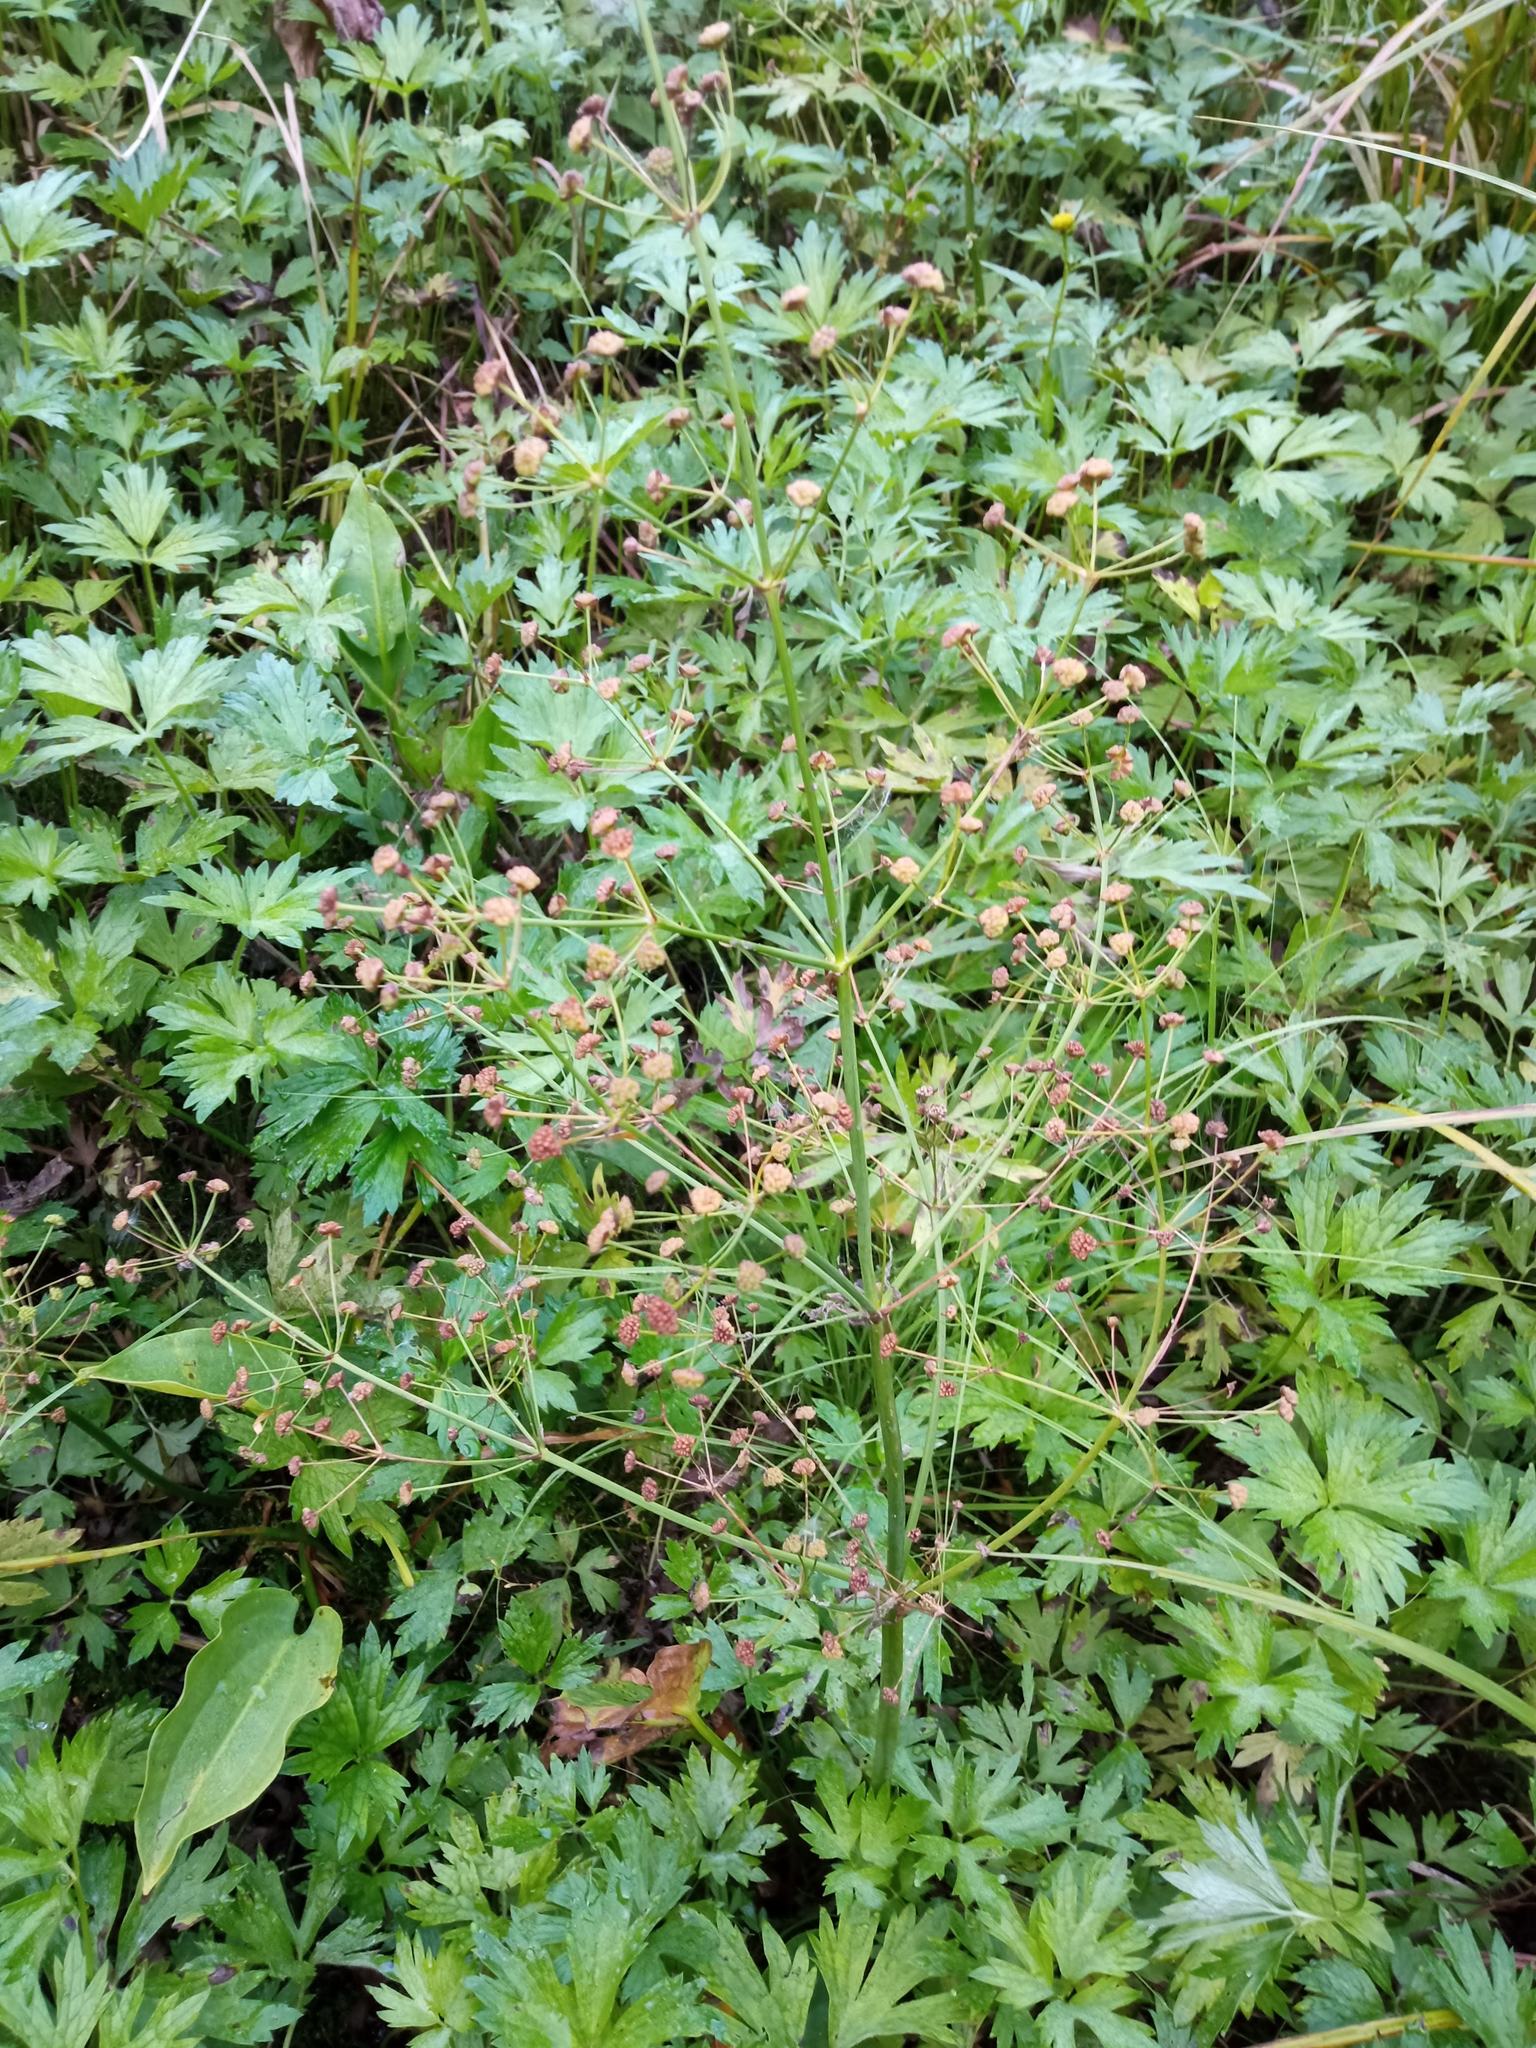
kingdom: Plantae
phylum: Tracheophyta
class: Liliopsida
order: Alismatales
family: Alismataceae
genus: Alisma
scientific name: Alisma plantago-aquatica
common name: Water-plantain
